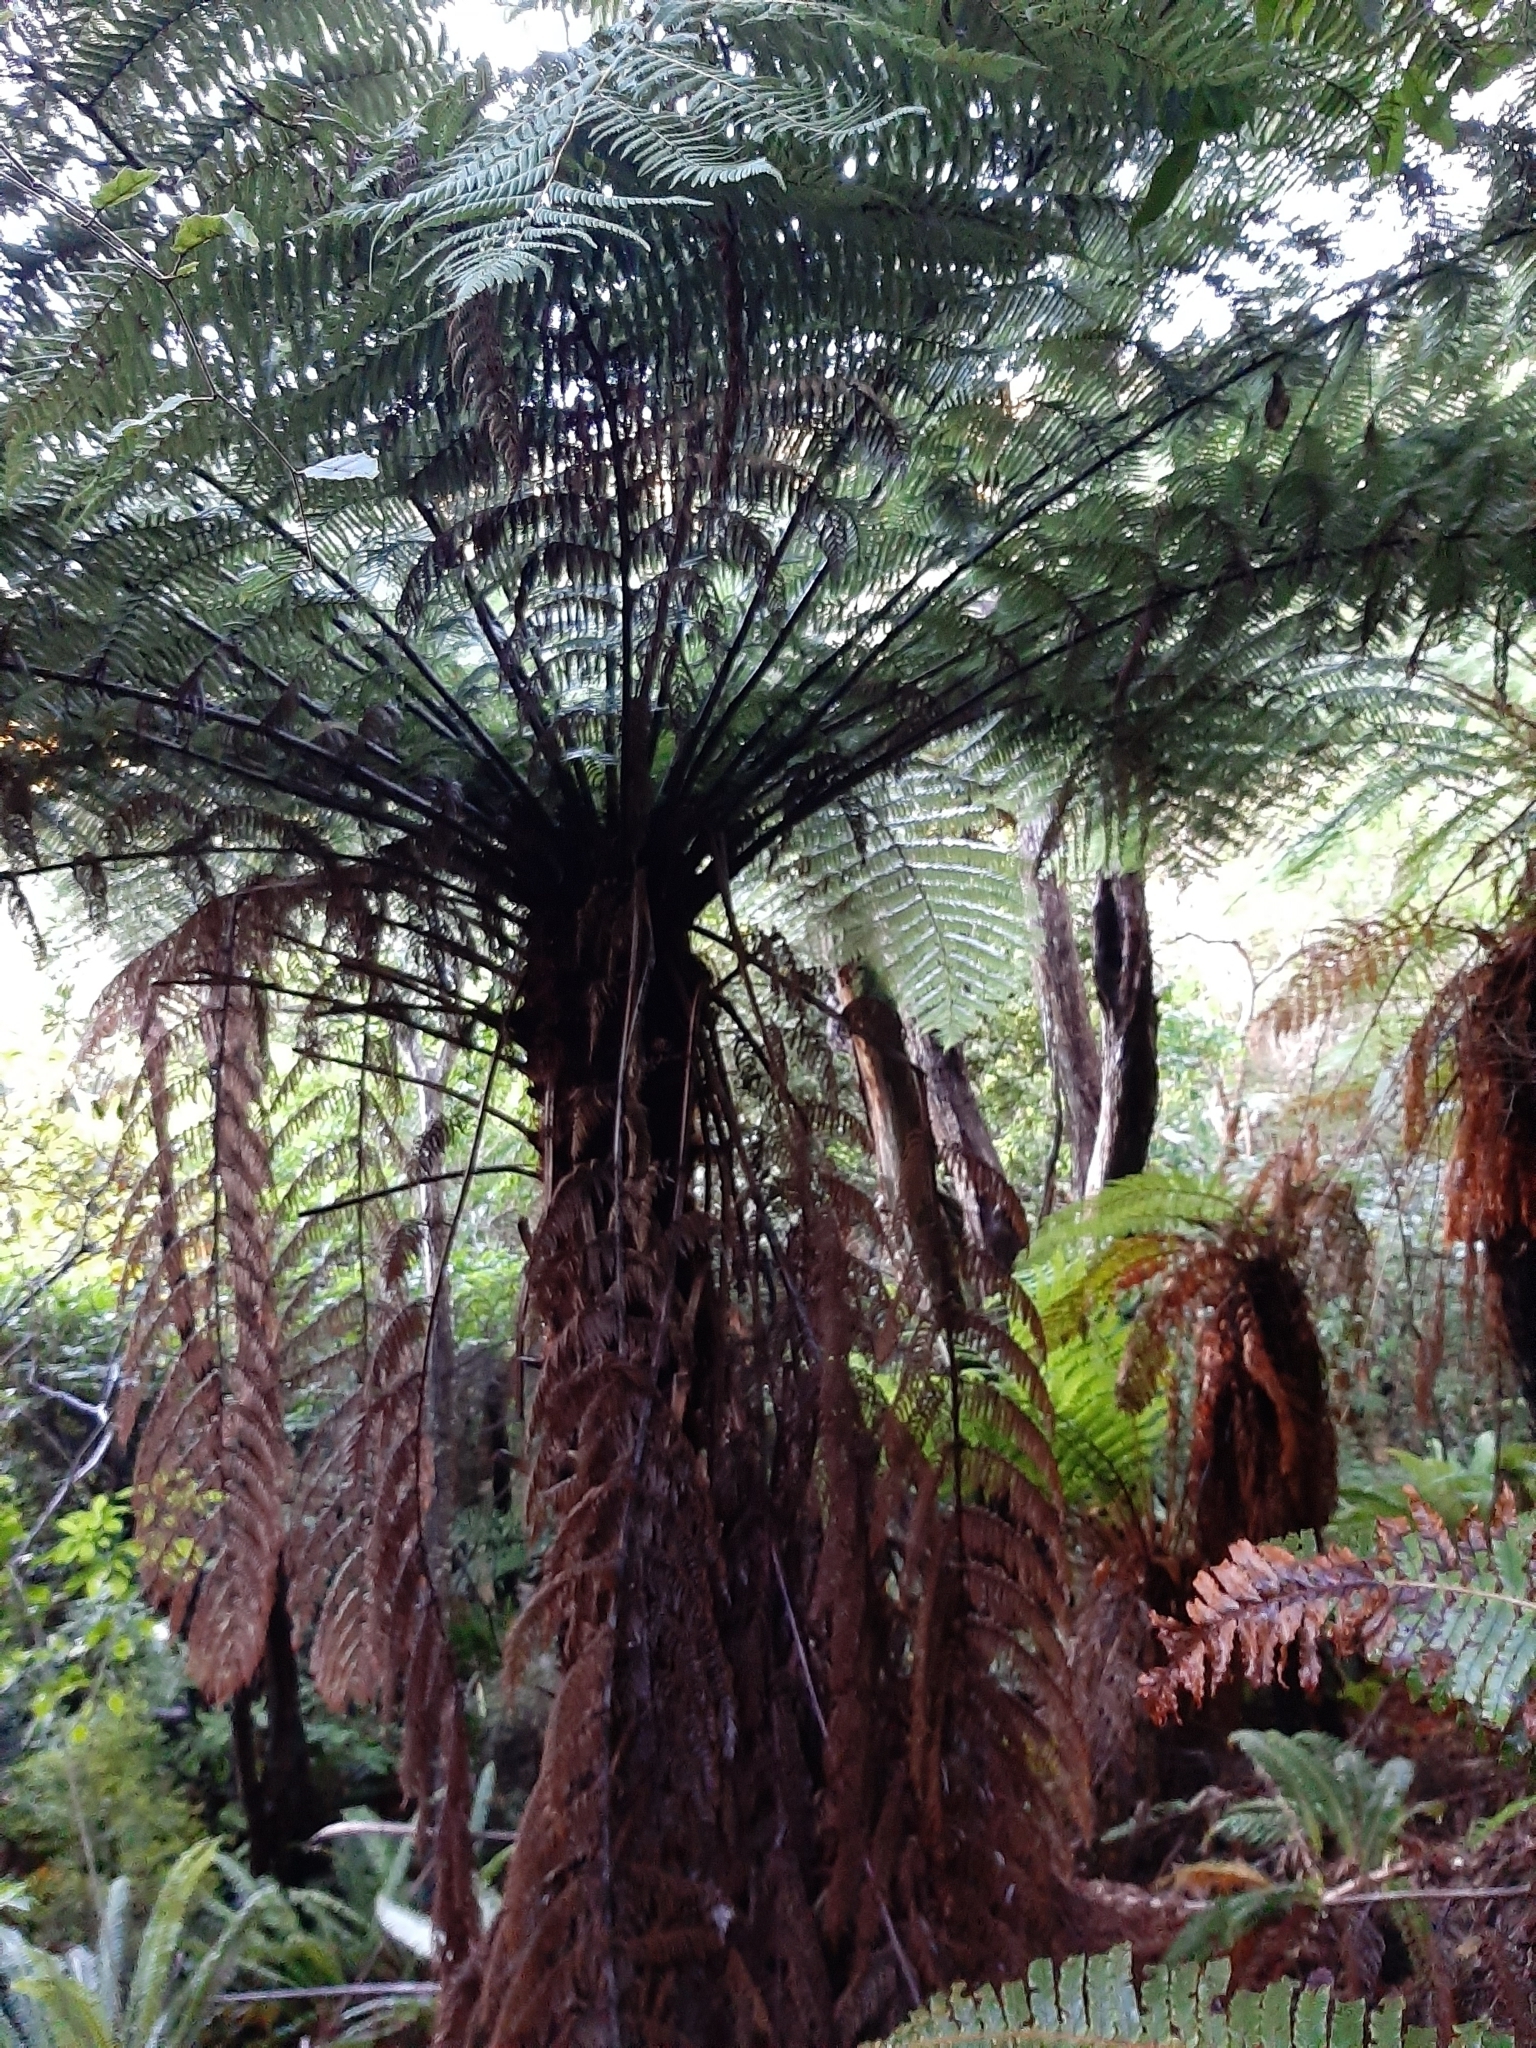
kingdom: Plantae
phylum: Tracheophyta
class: Polypodiopsida
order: Cyatheales
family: Cyatheaceae
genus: Alsophila
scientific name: Alsophila dealbata
